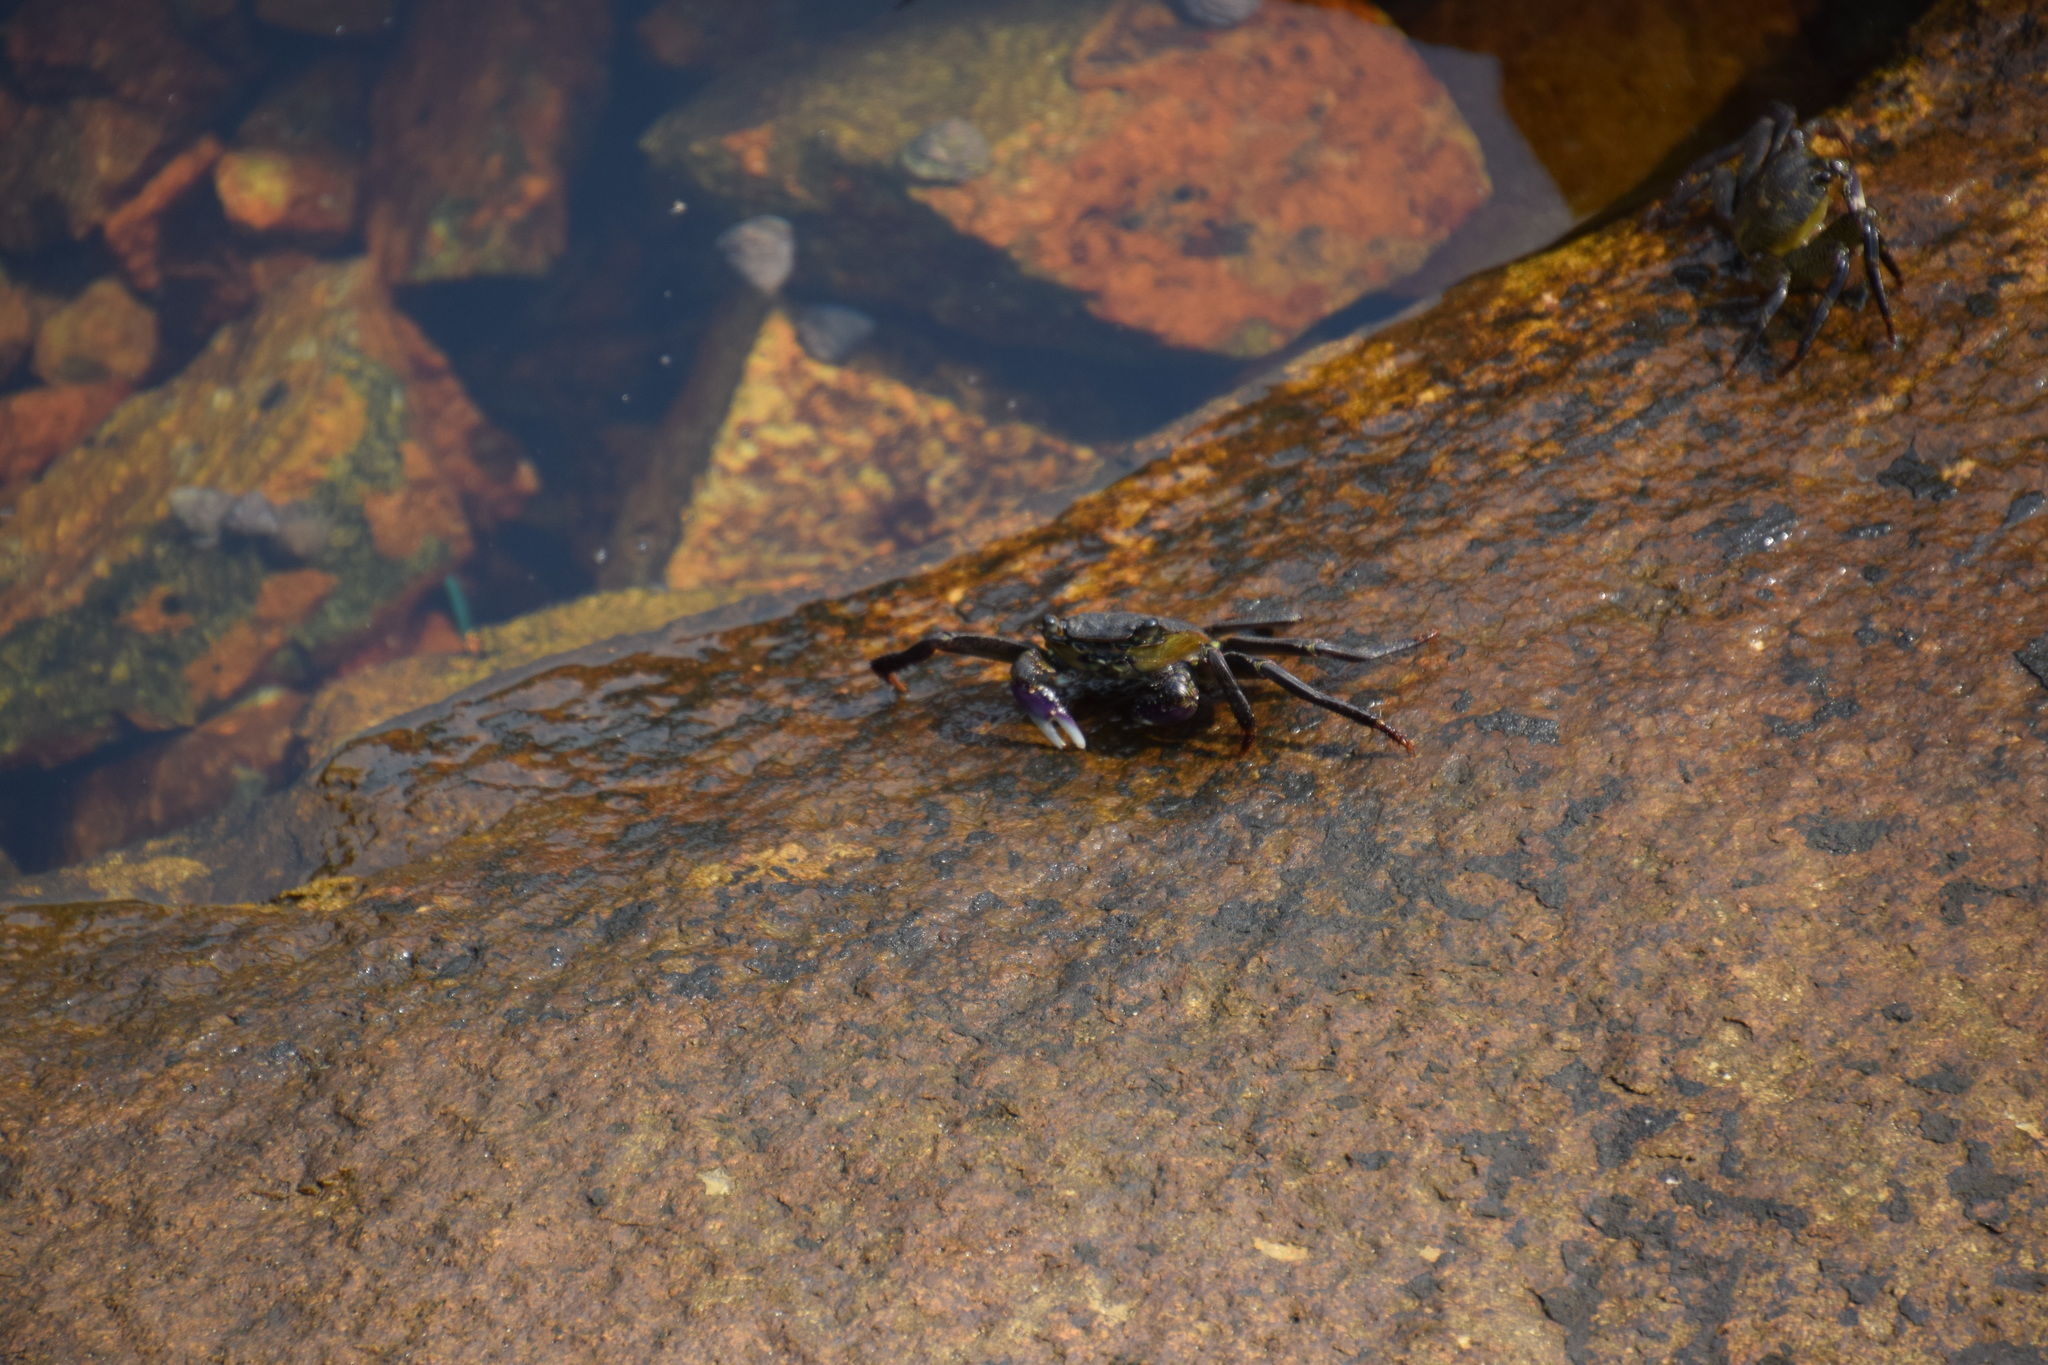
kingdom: Animalia
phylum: Arthropoda
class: Malacostraca
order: Decapoda
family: Grapsidae
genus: Leptograpsus
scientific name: Leptograpsus variegatus
